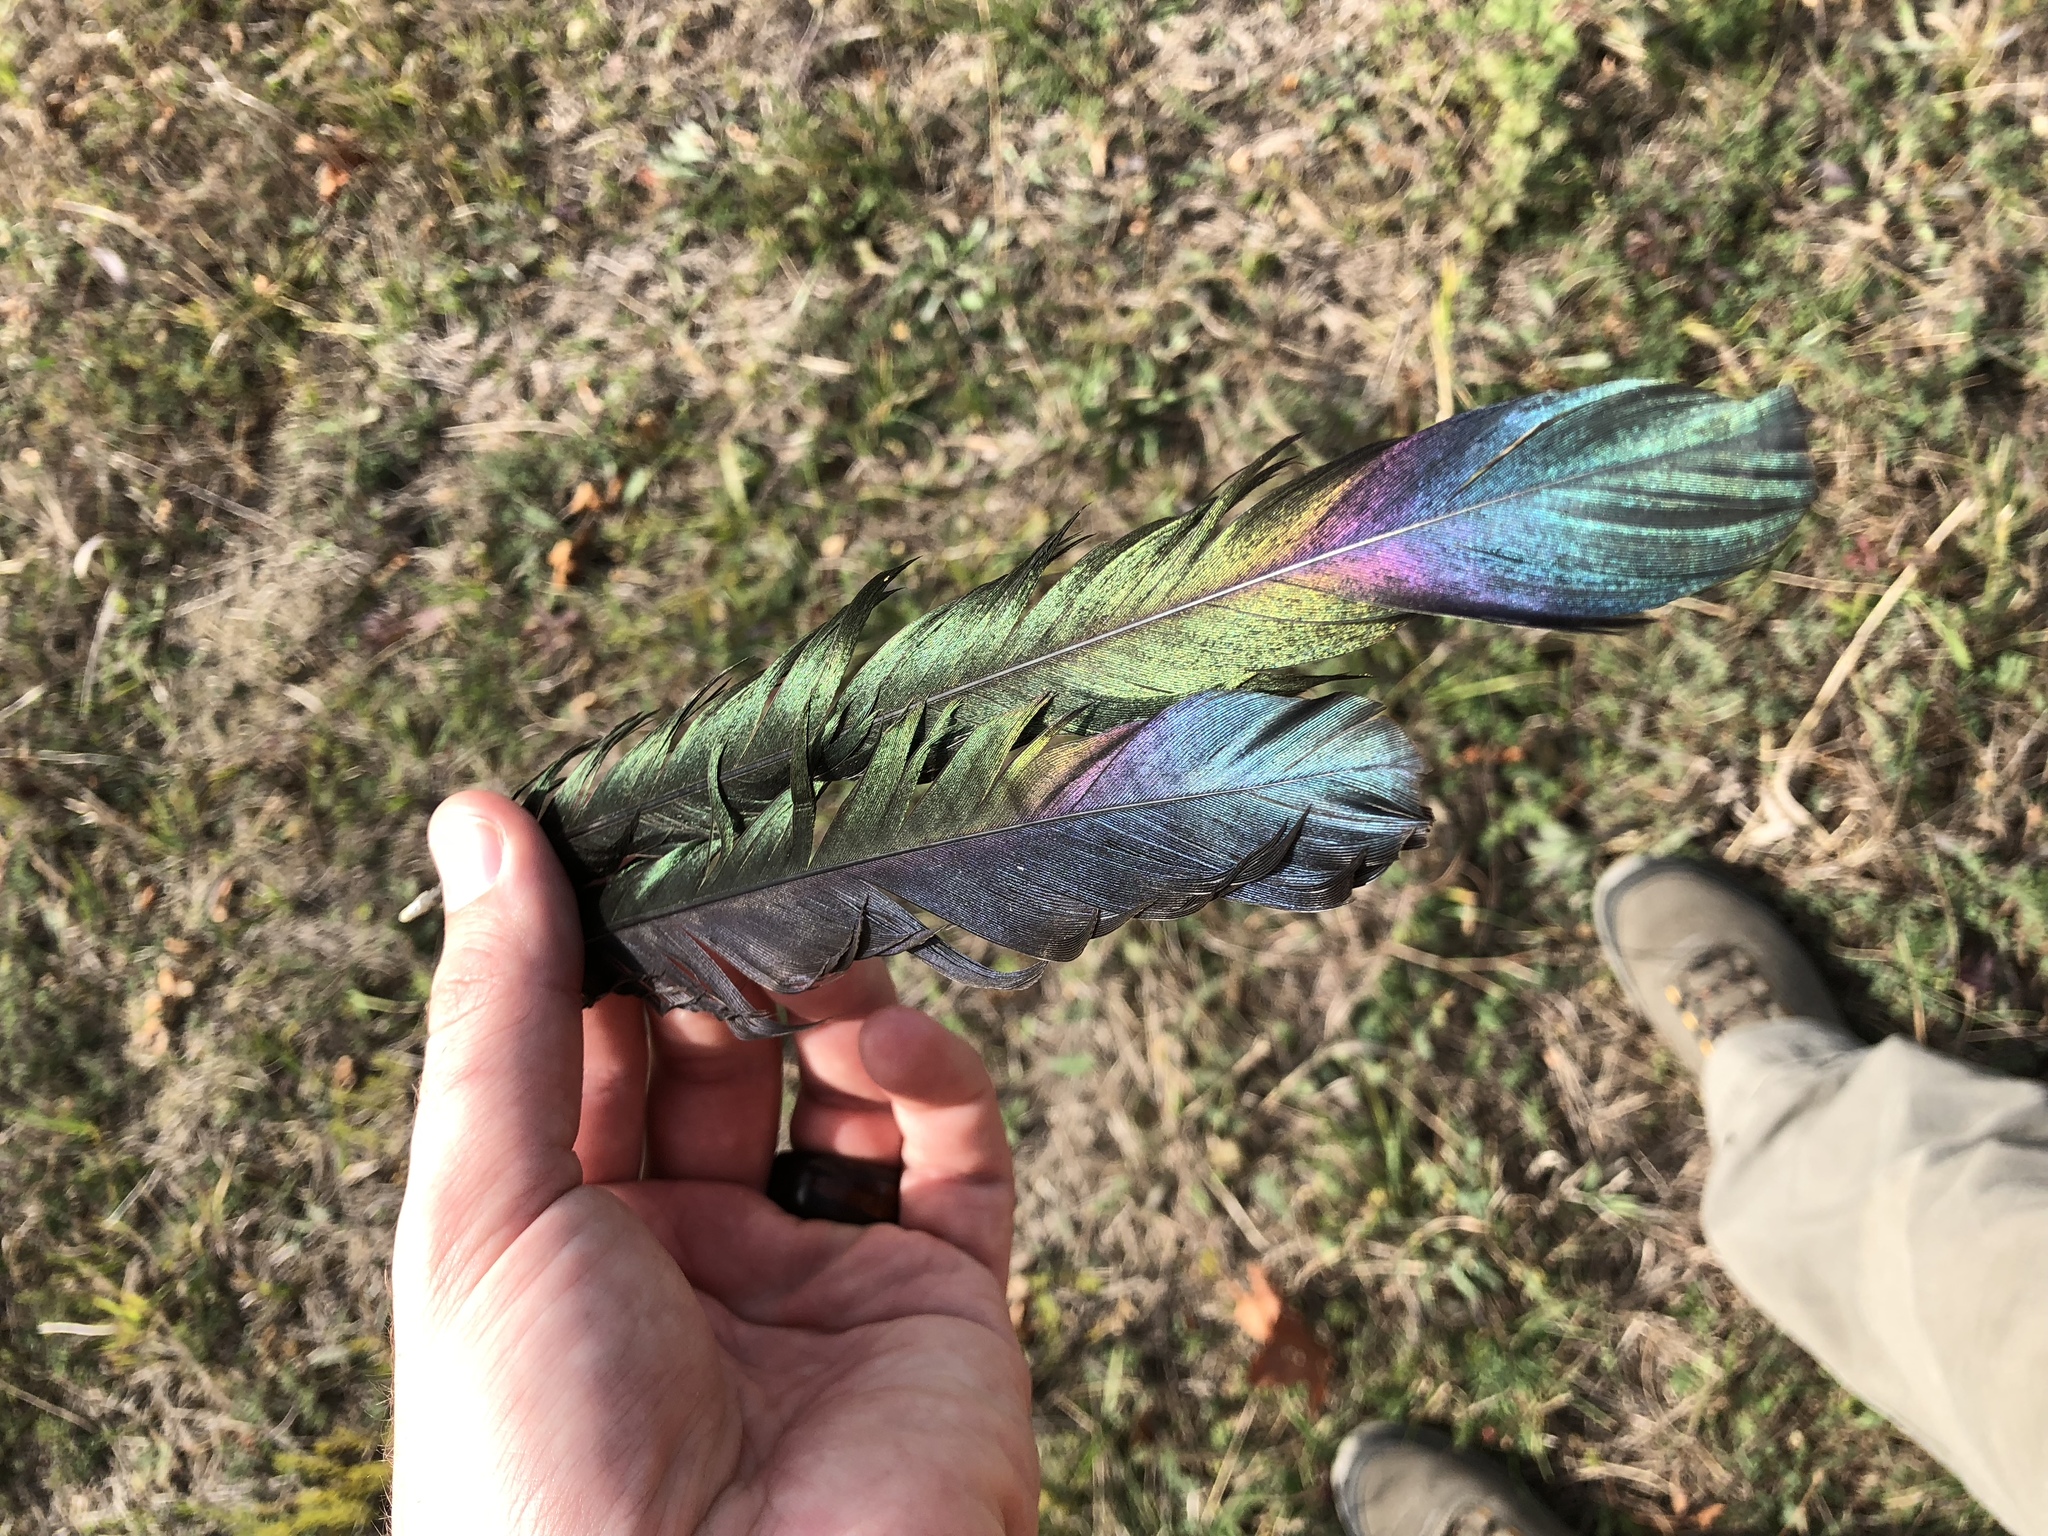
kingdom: Animalia
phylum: Chordata
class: Aves
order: Passeriformes
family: Corvidae
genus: Pica
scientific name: Pica pica
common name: Eurasian magpie
